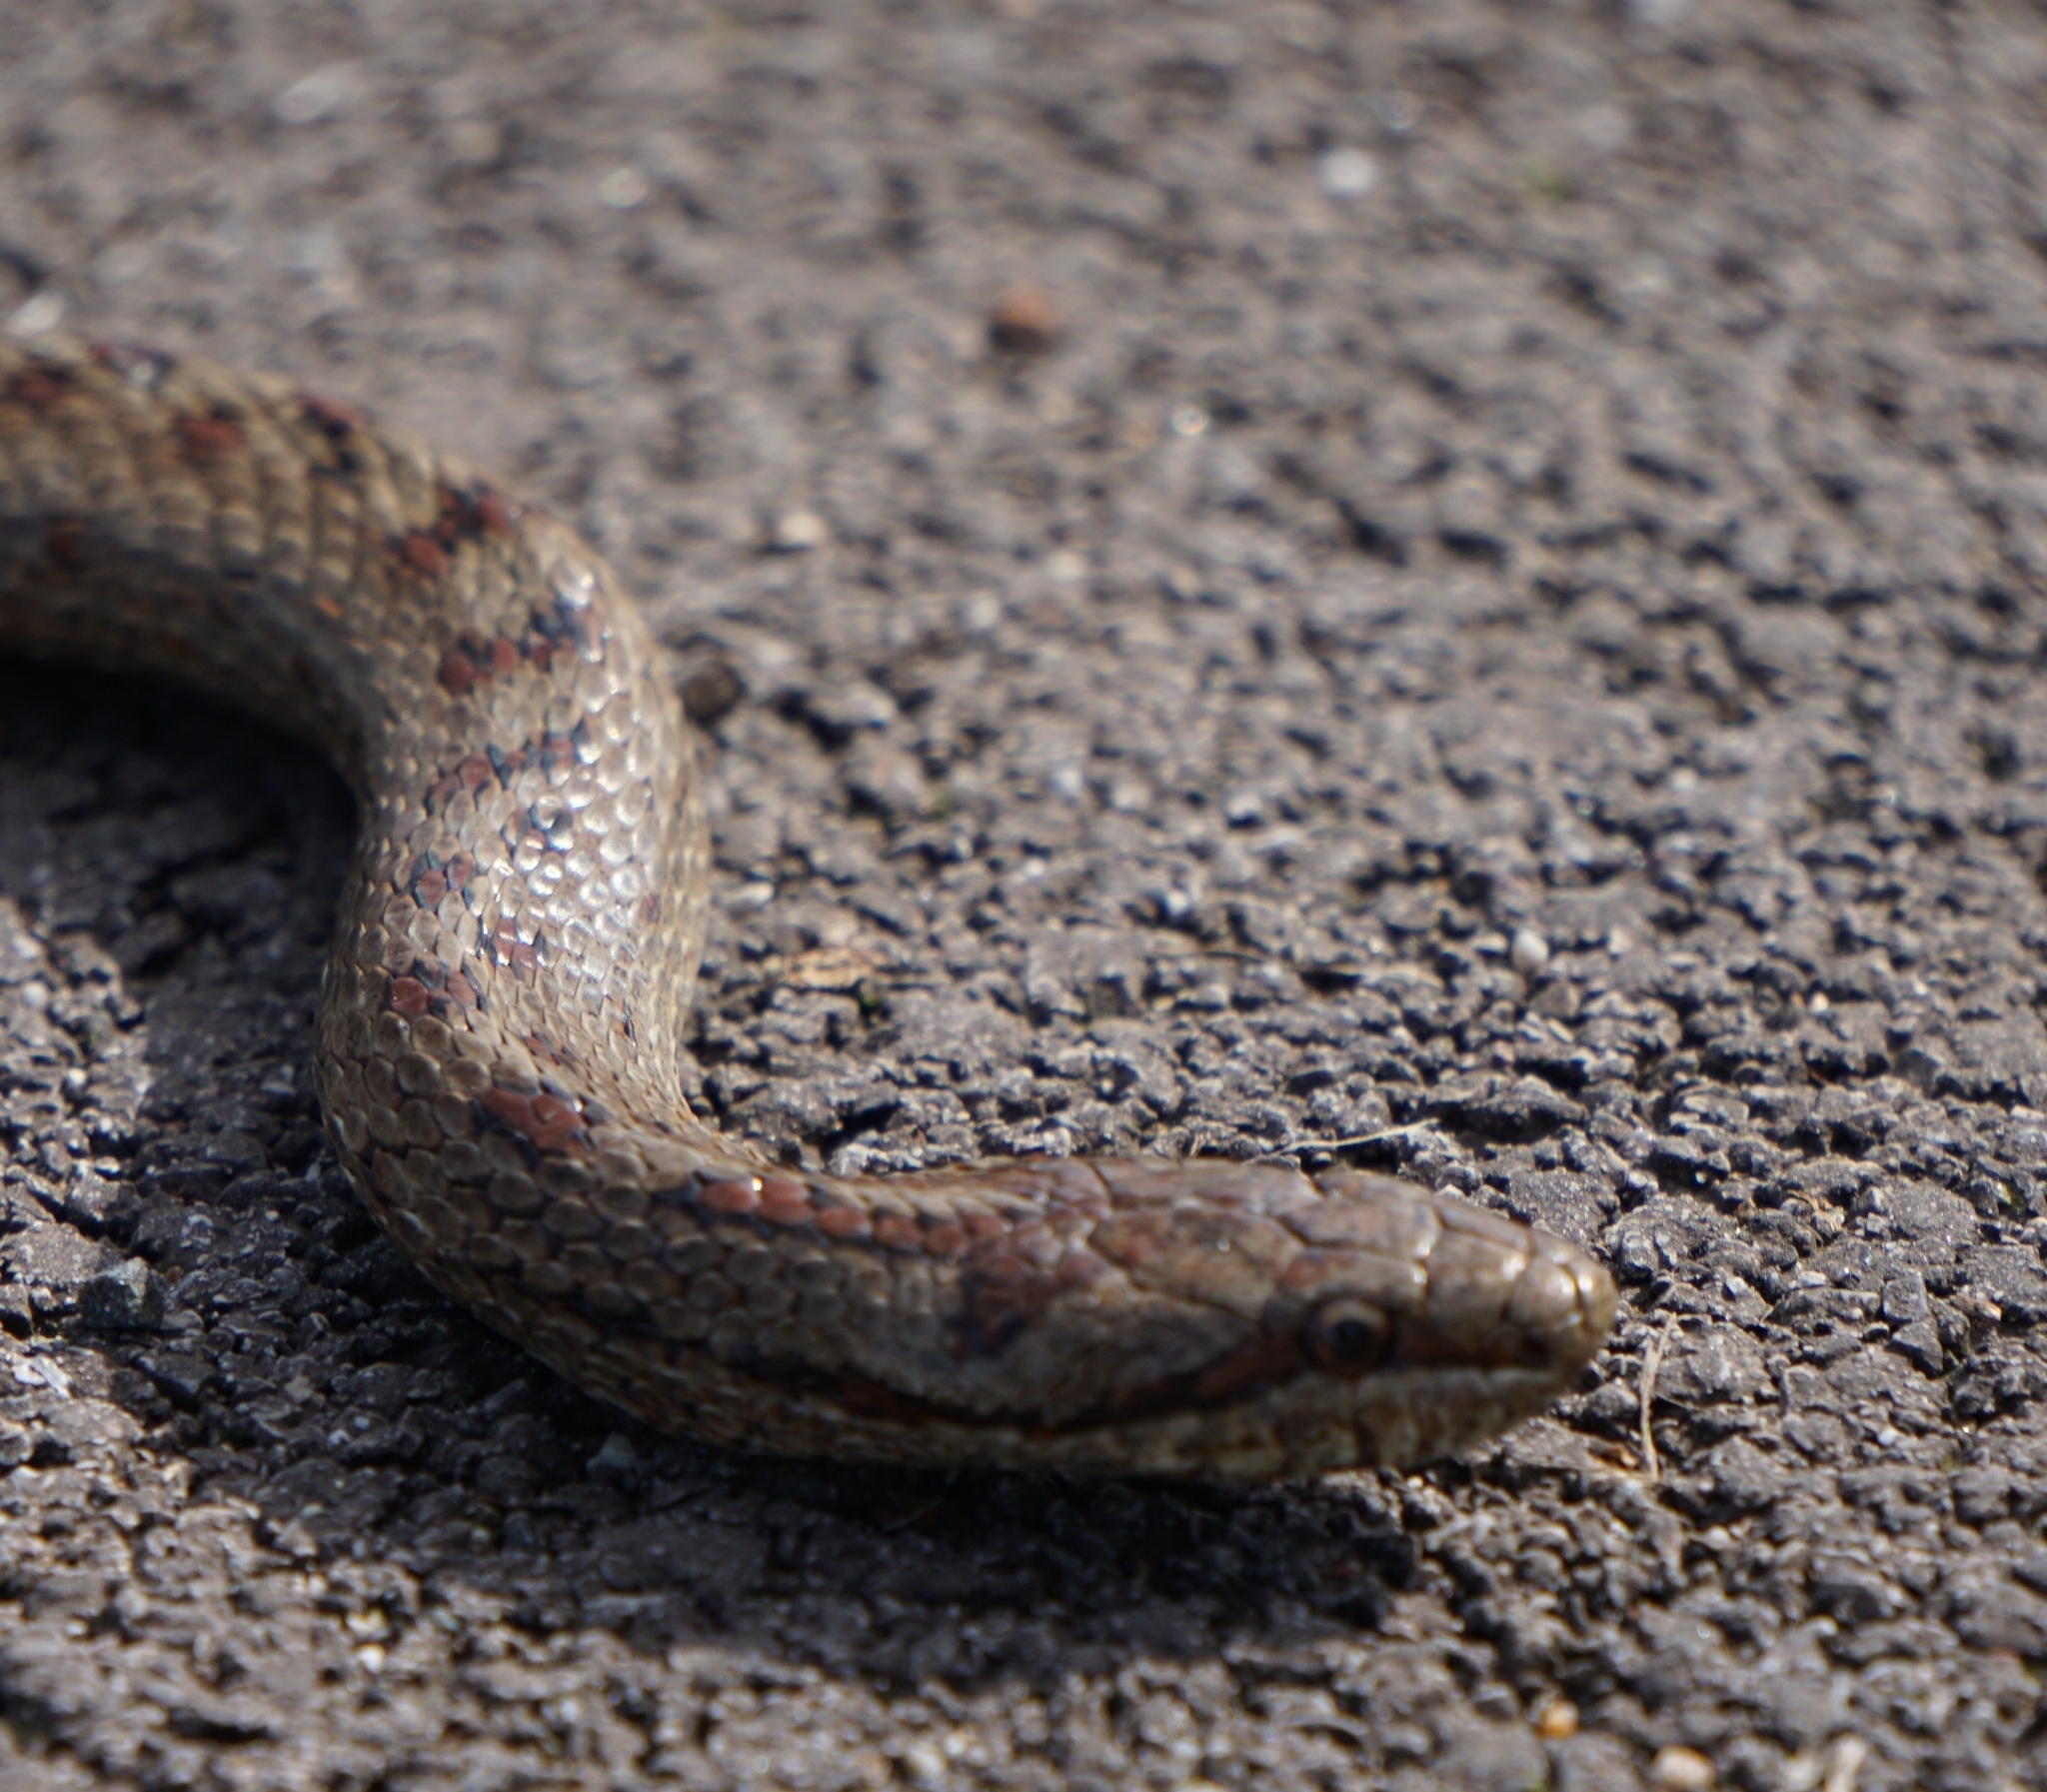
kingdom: Animalia
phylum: Chordata
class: Squamata
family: Colubridae
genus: Coronella
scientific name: Coronella austriaca
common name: Smooth snake
